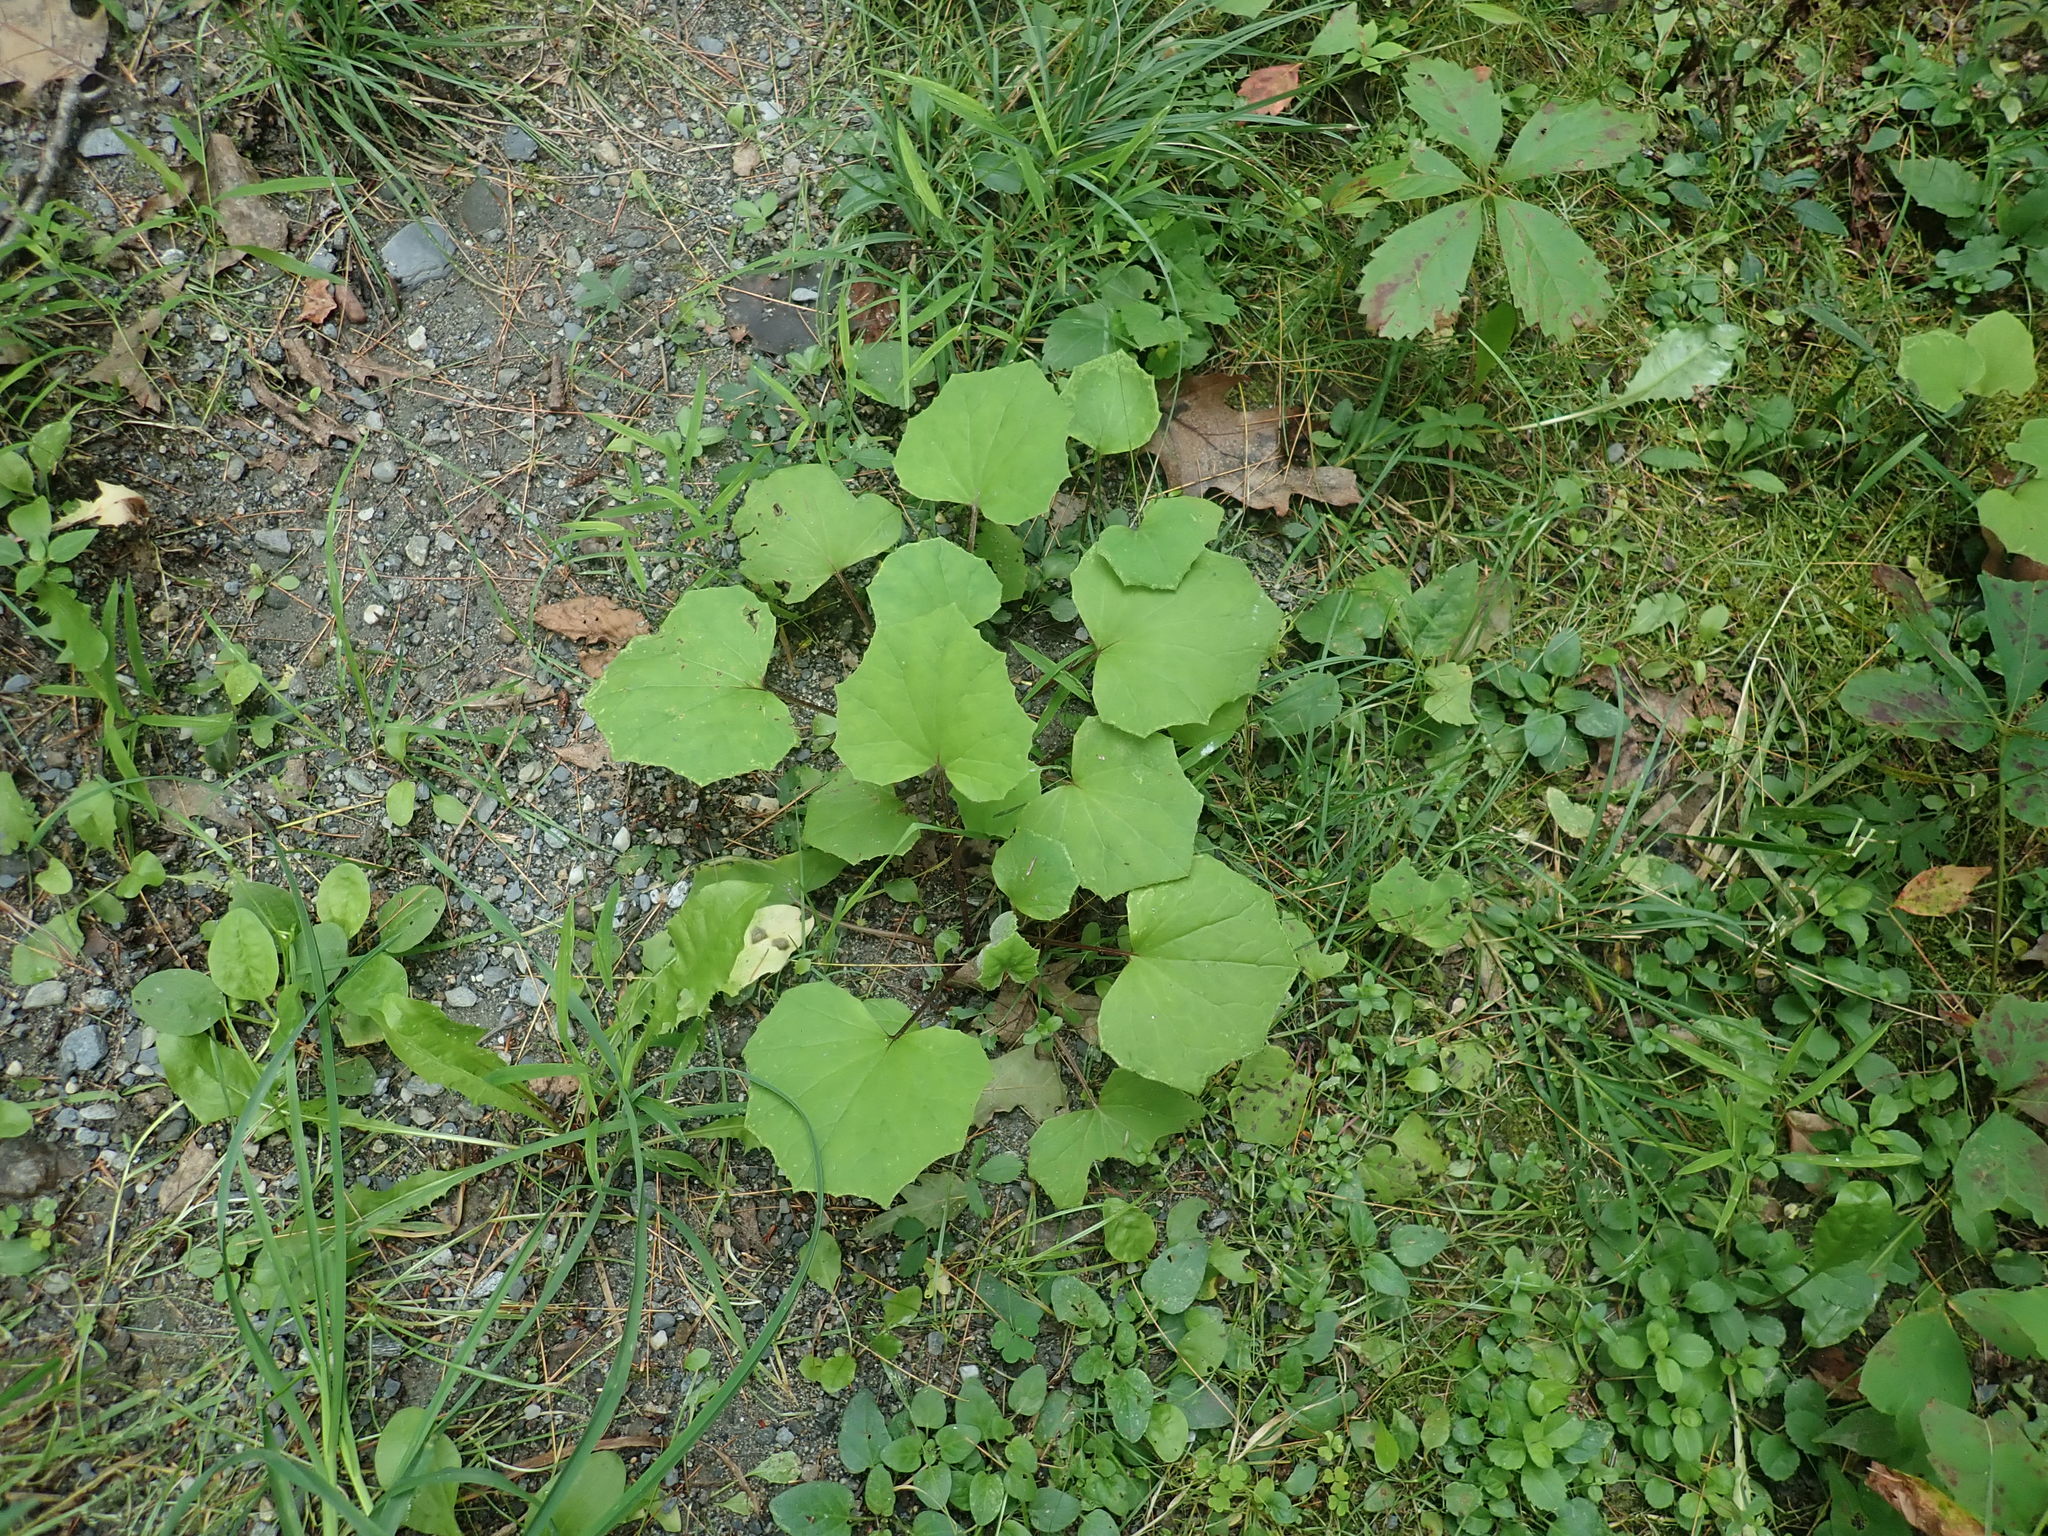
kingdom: Plantae
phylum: Tracheophyta
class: Magnoliopsida
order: Asterales
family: Asteraceae
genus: Tussilago
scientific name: Tussilago farfara
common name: Coltsfoot
